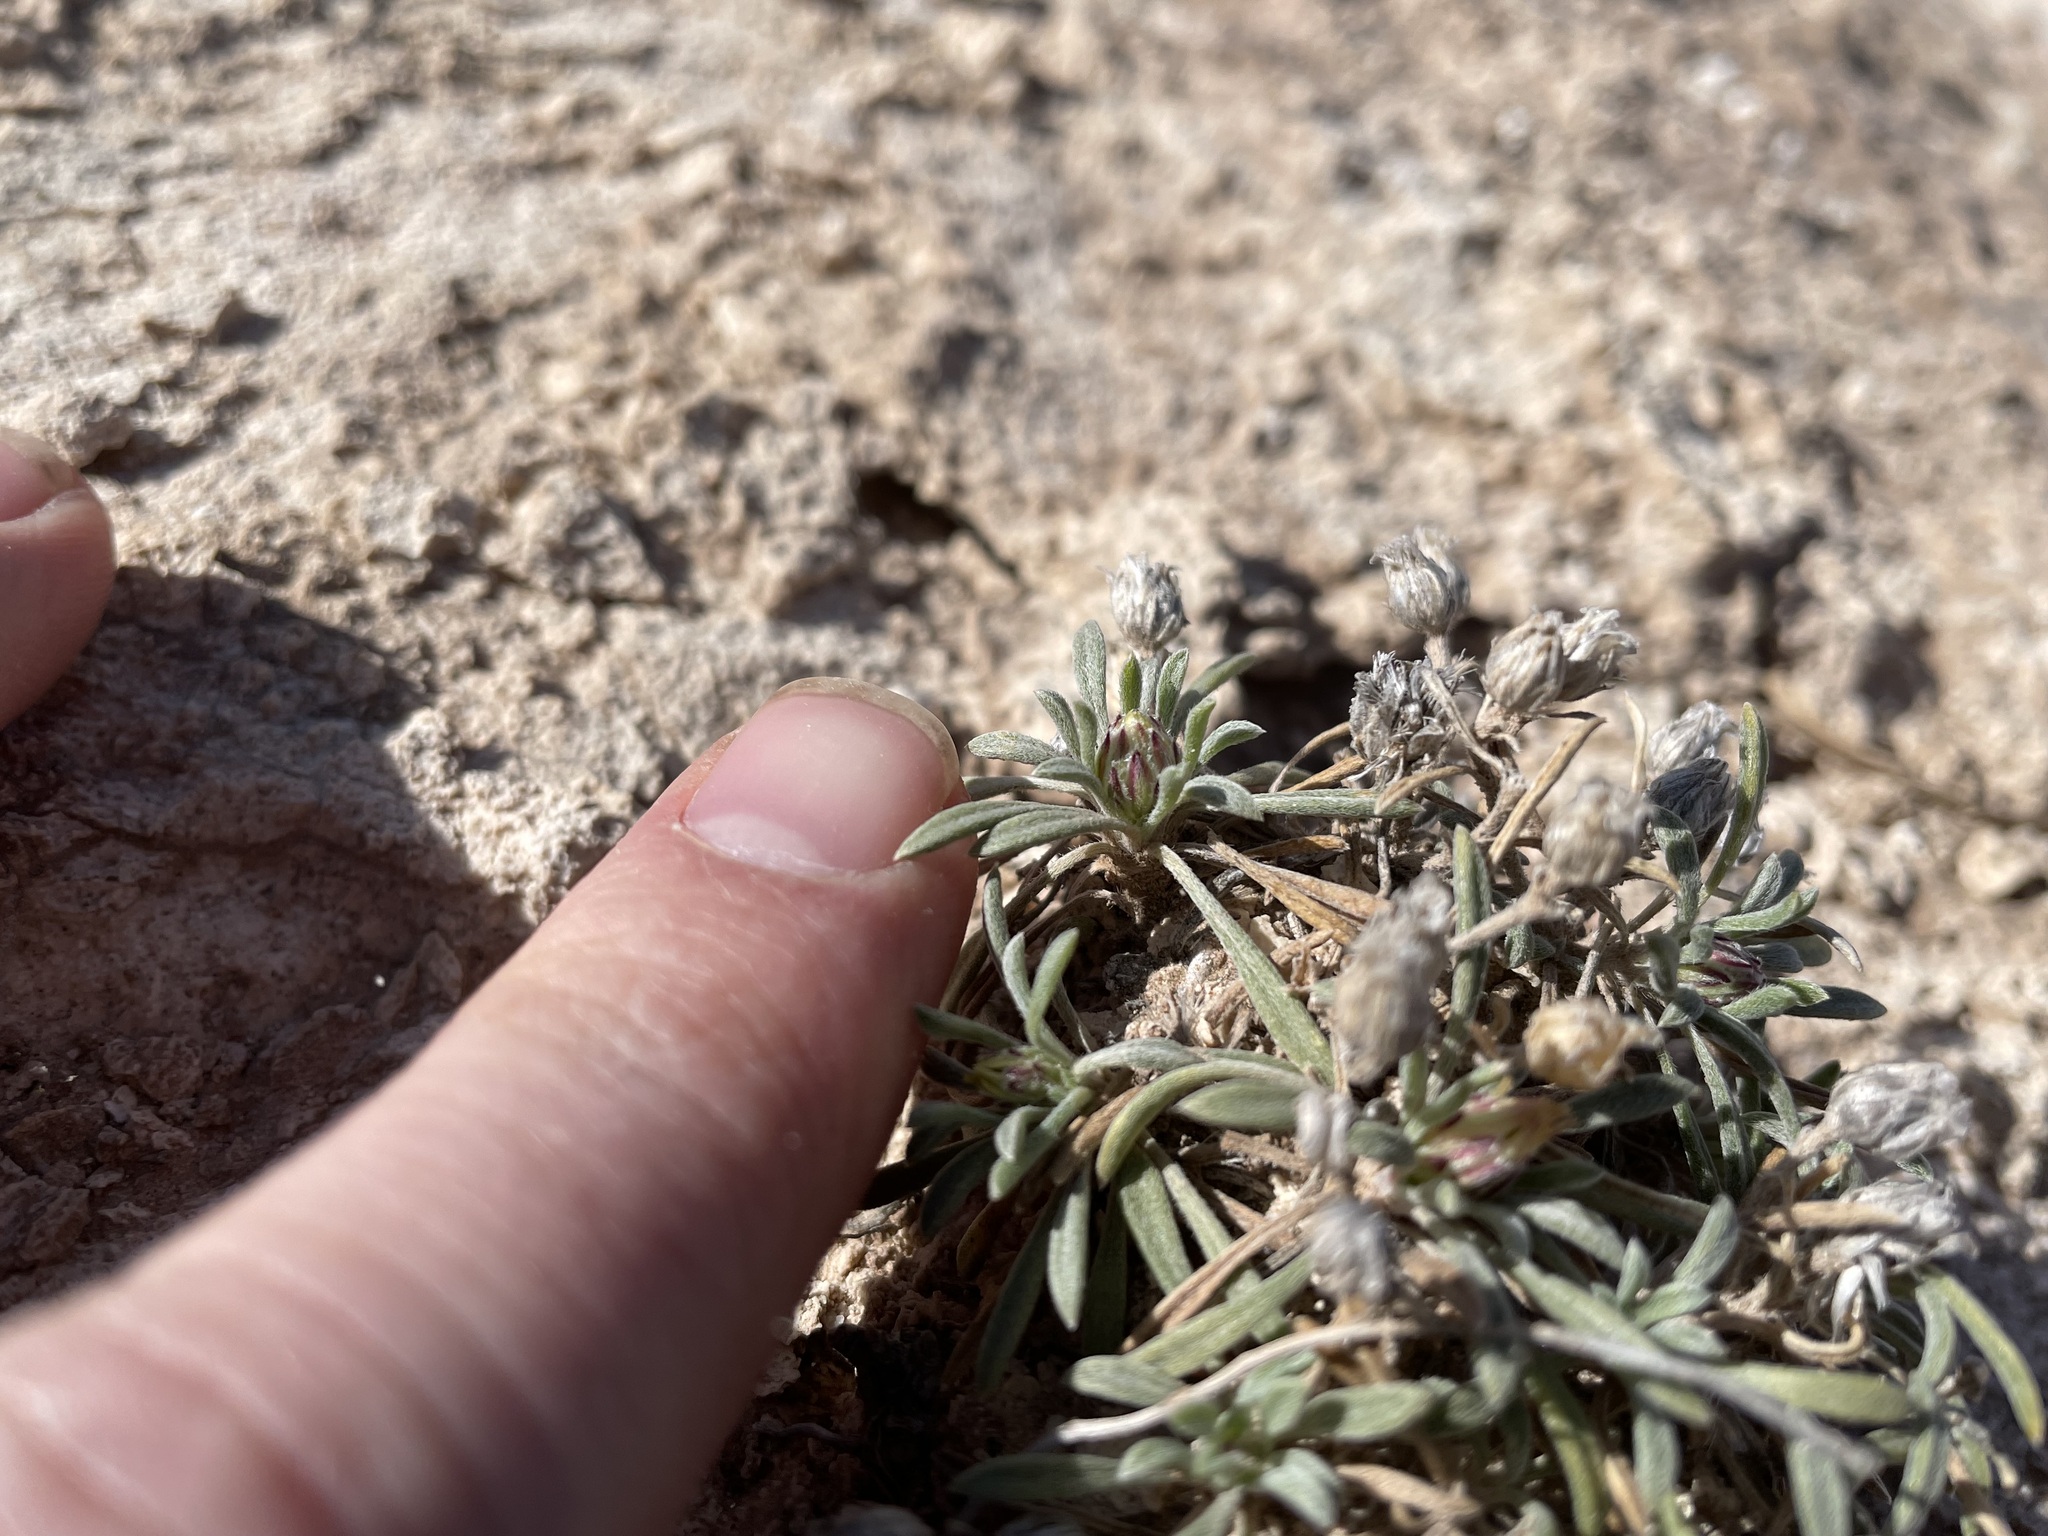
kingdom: Plantae
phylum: Tracheophyta
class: Magnoliopsida
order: Asterales
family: Asteraceae
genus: Townsendia
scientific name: Townsendia gypsophila
